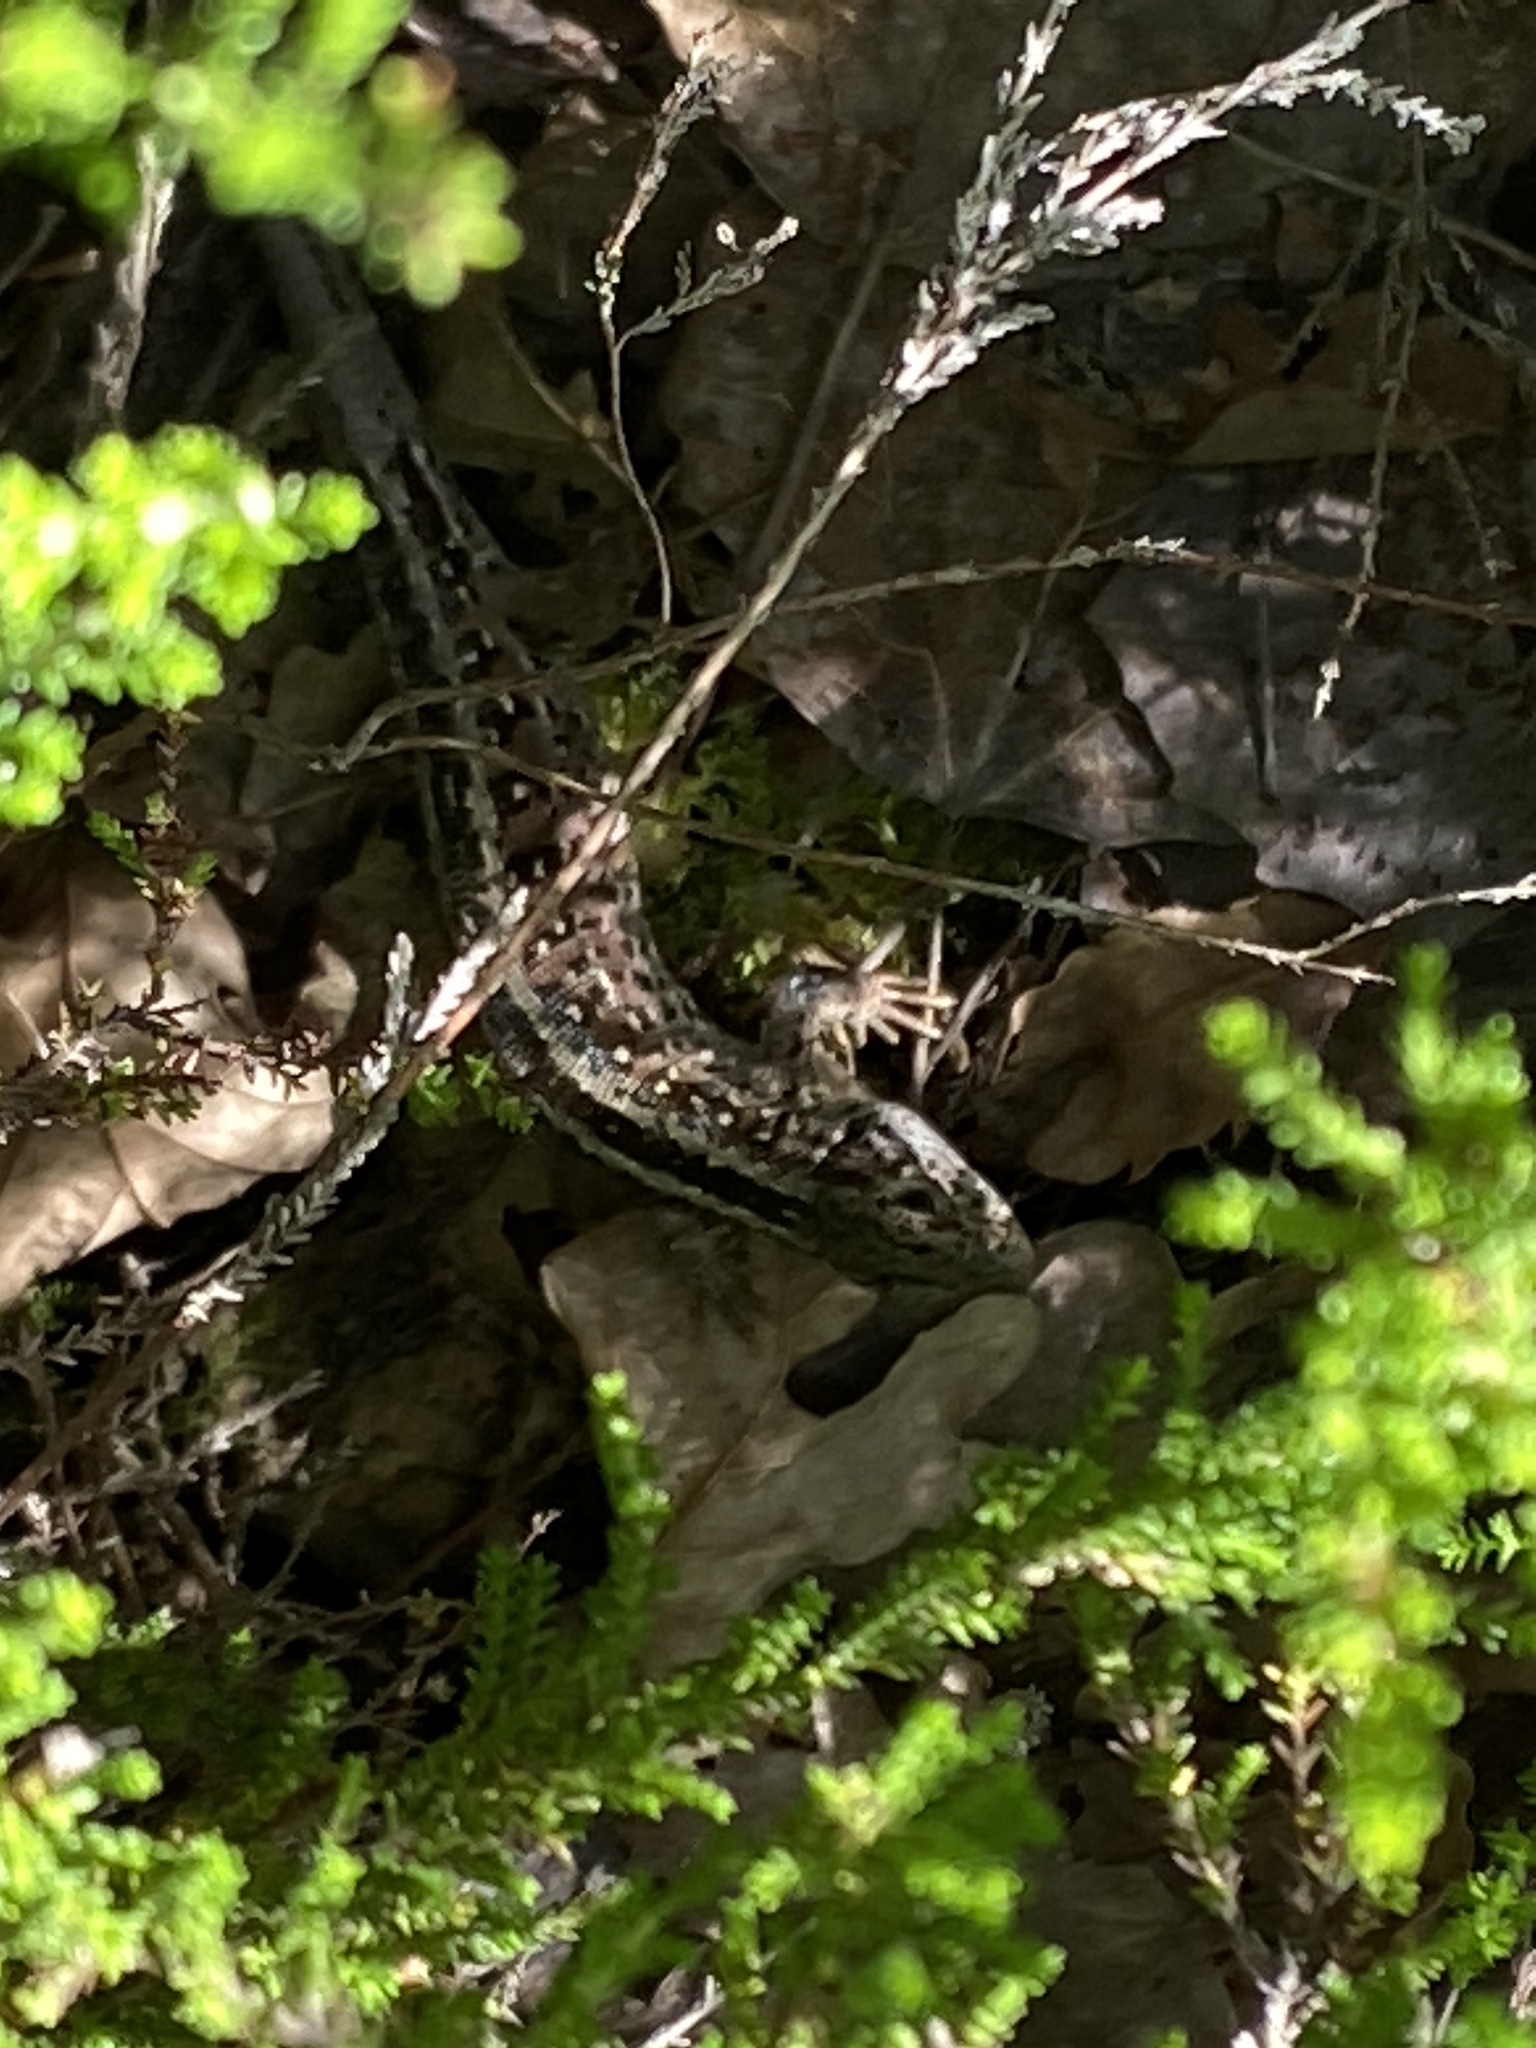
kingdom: Animalia
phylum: Chordata
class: Squamata
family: Lacertidae
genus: Lacerta
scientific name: Lacerta agilis
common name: Sand lizard
